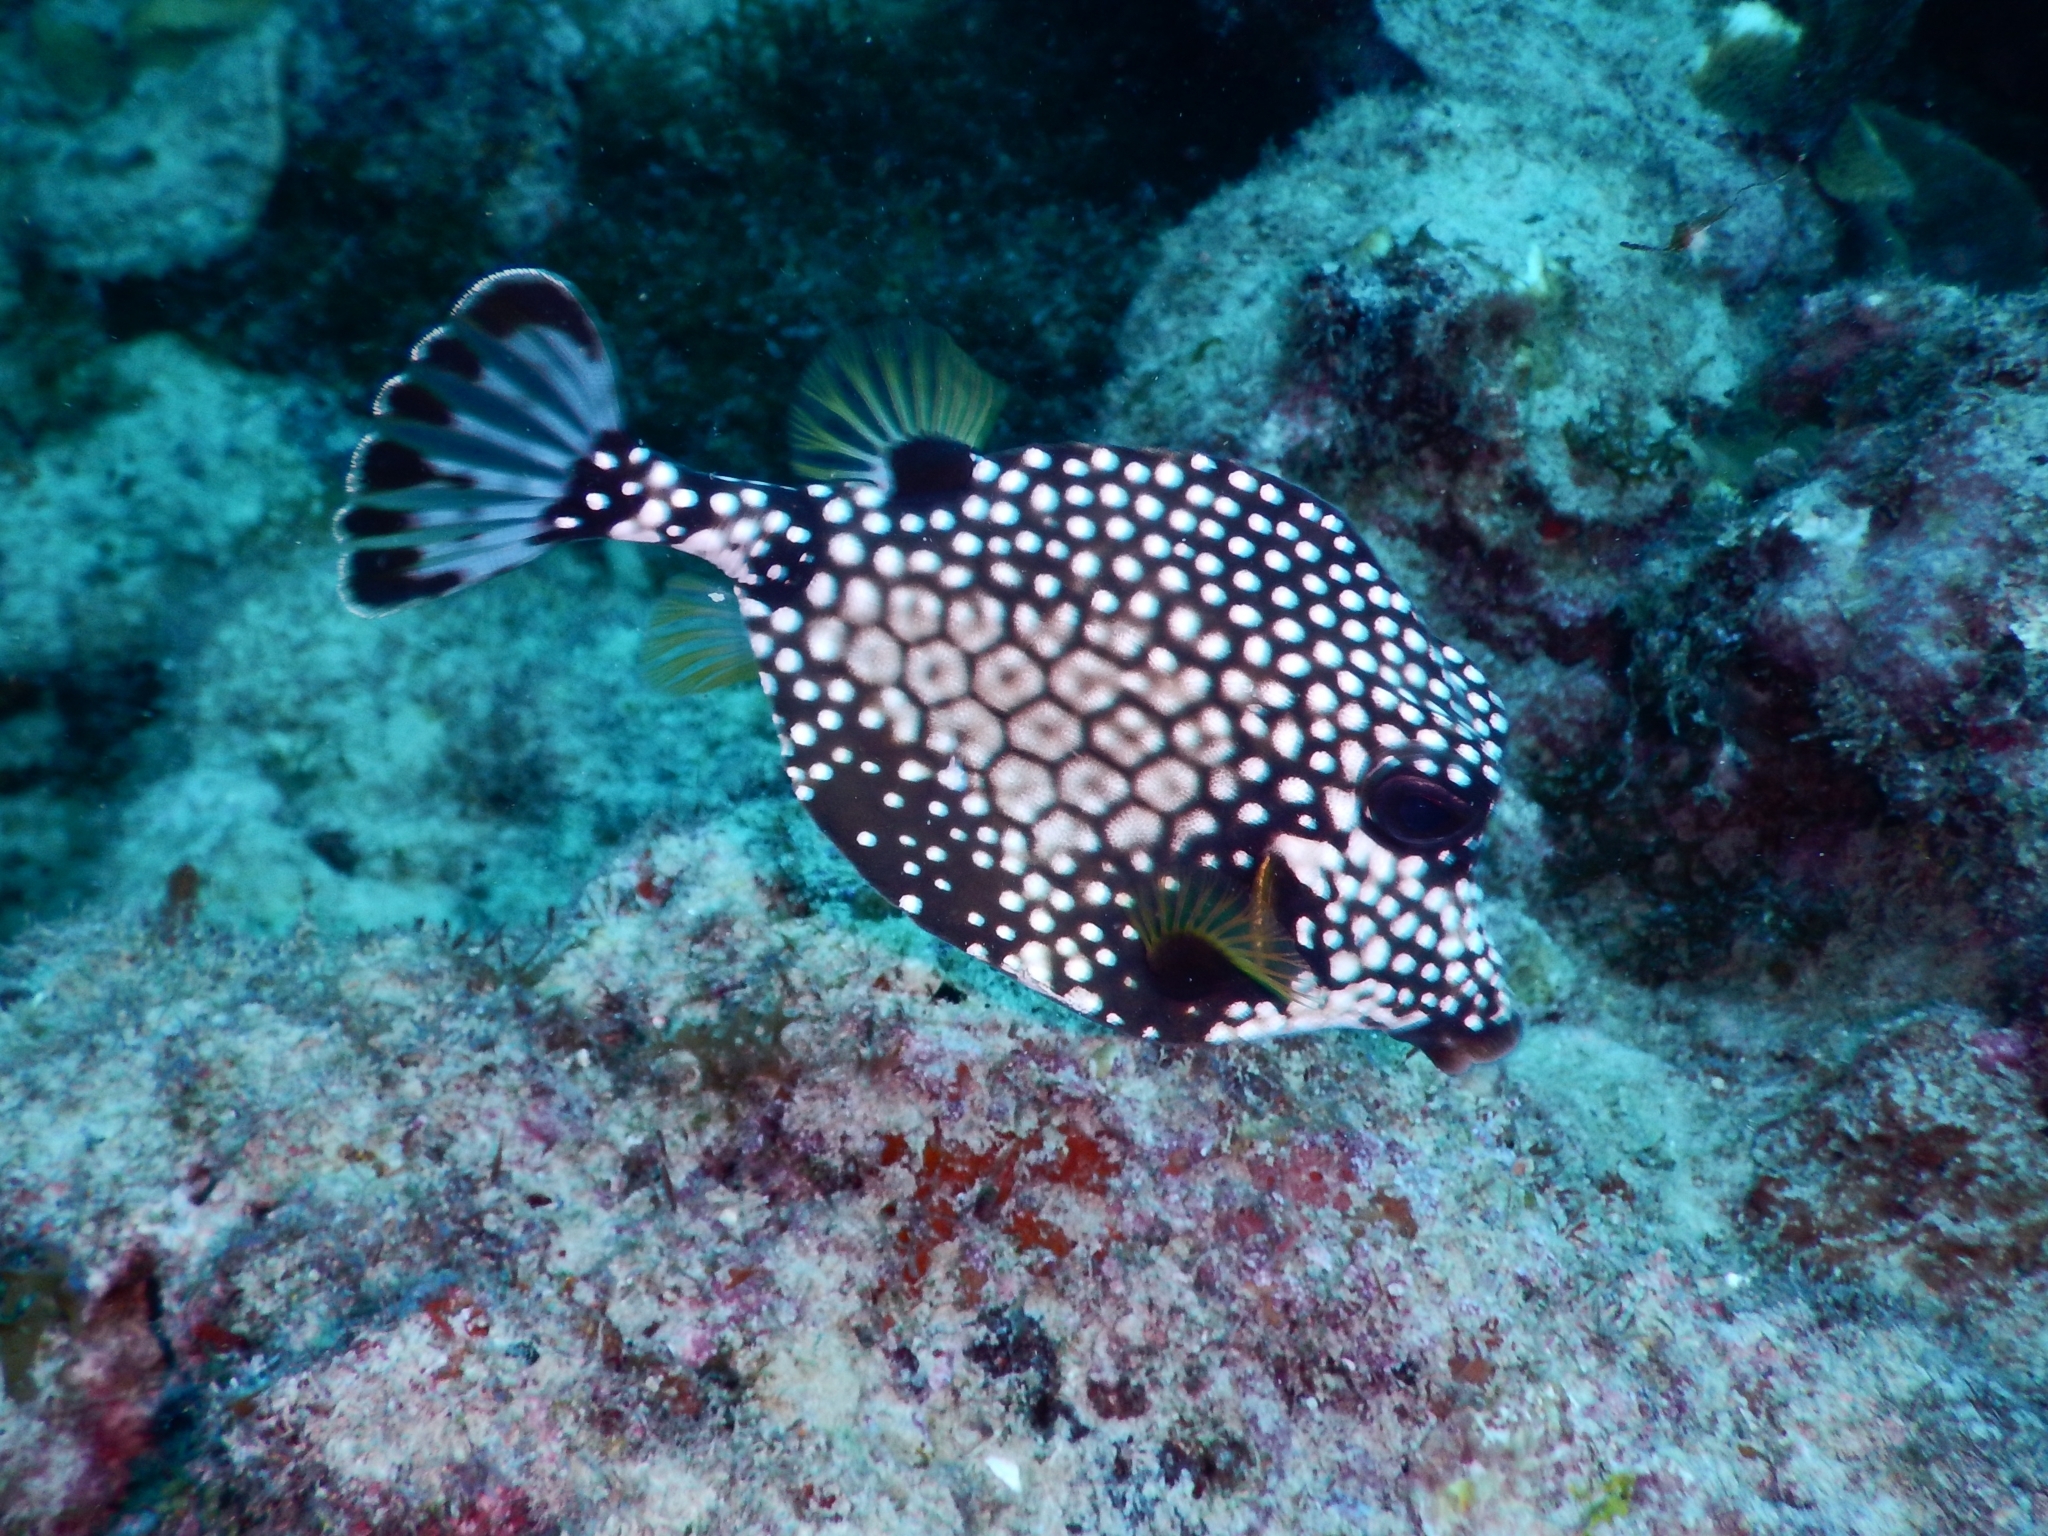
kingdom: Animalia
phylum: Chordata
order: Tetraodontiformes
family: Ostraciidae
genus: Lactophrys
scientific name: Lactophrys triqueter
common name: Smooth trunkfish
